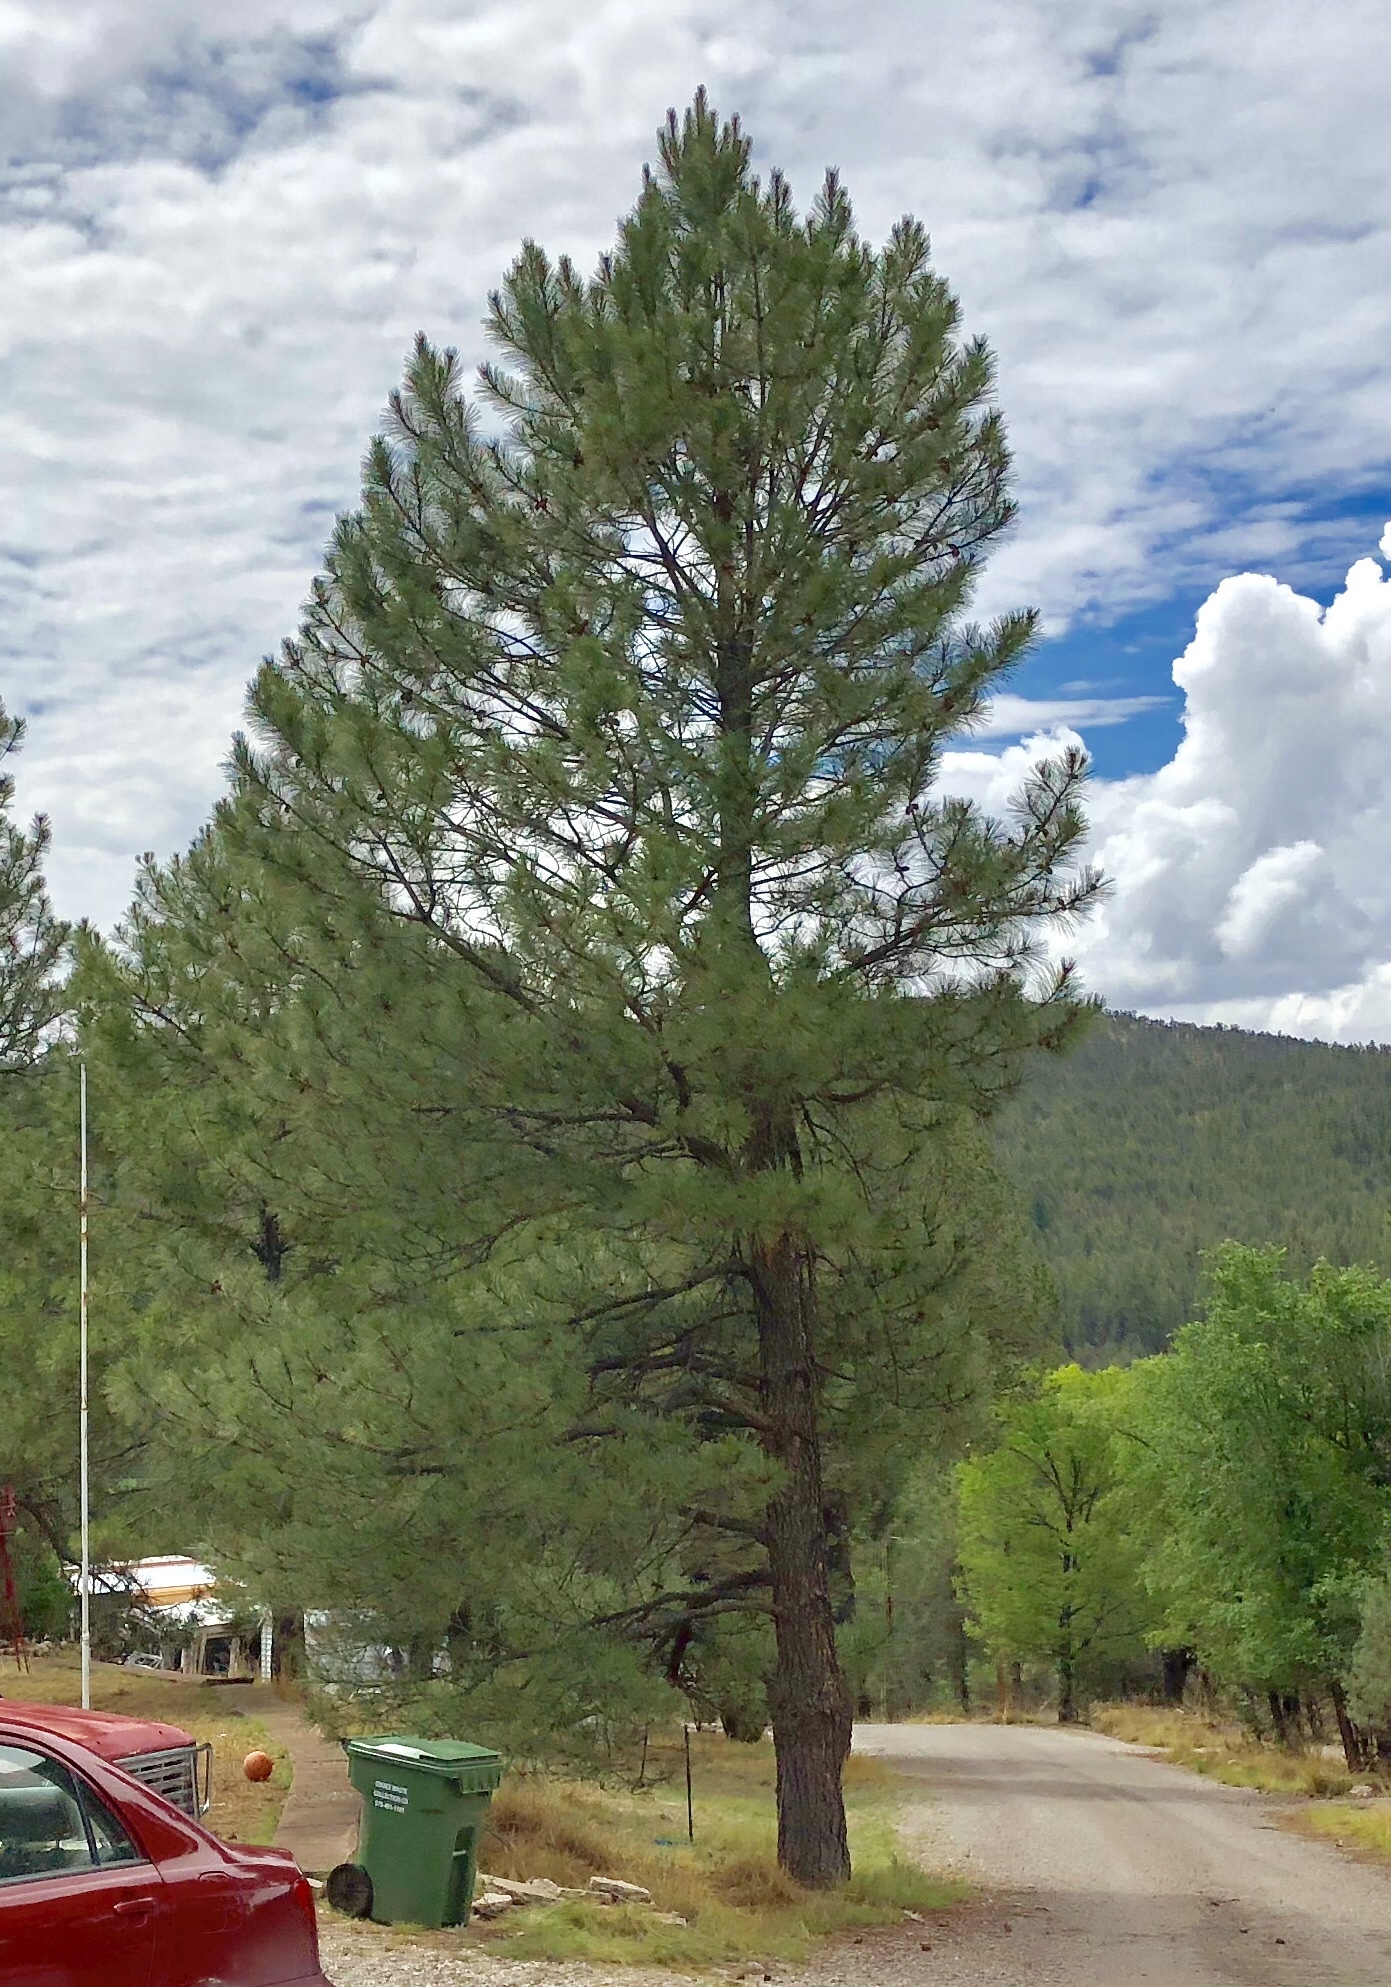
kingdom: Plantae
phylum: Tracheophyta
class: Pinopsida
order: Pinales
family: Pinaceae
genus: Pinus
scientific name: Pinus ponderosa
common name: Western yellow-pine
